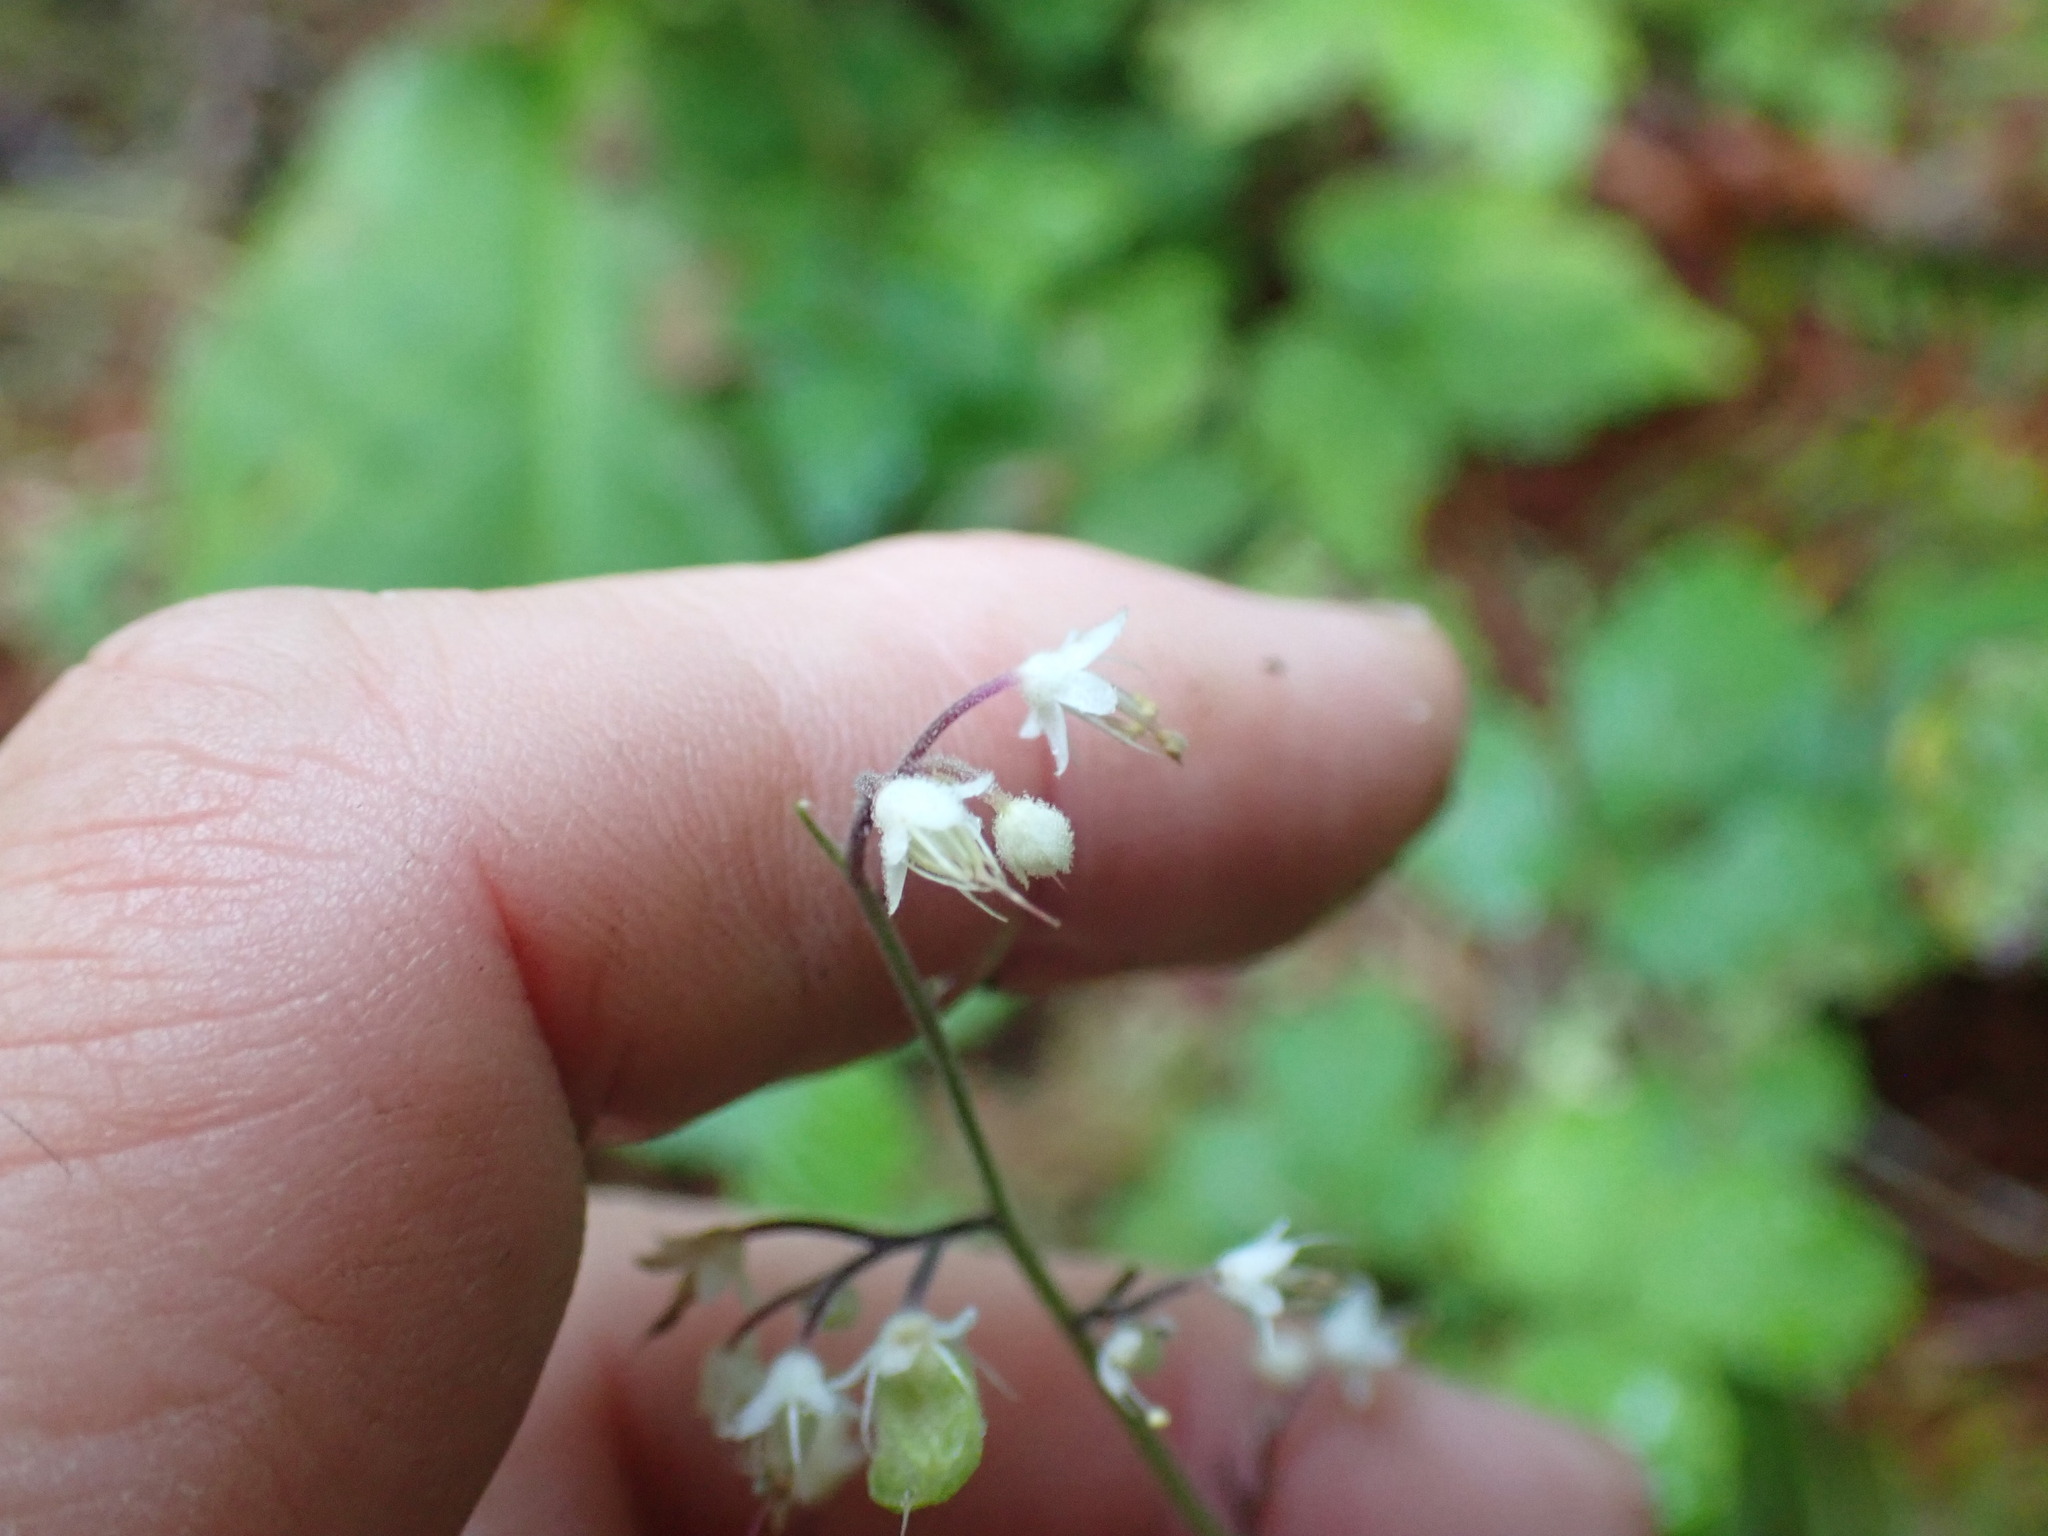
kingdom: Plantae
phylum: Tracheophyta
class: Magnoliopsida
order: Saxifragales
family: Saxifragaceae
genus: Tiarella
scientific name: Tiarella trifoliata
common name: Sugar-scoop
